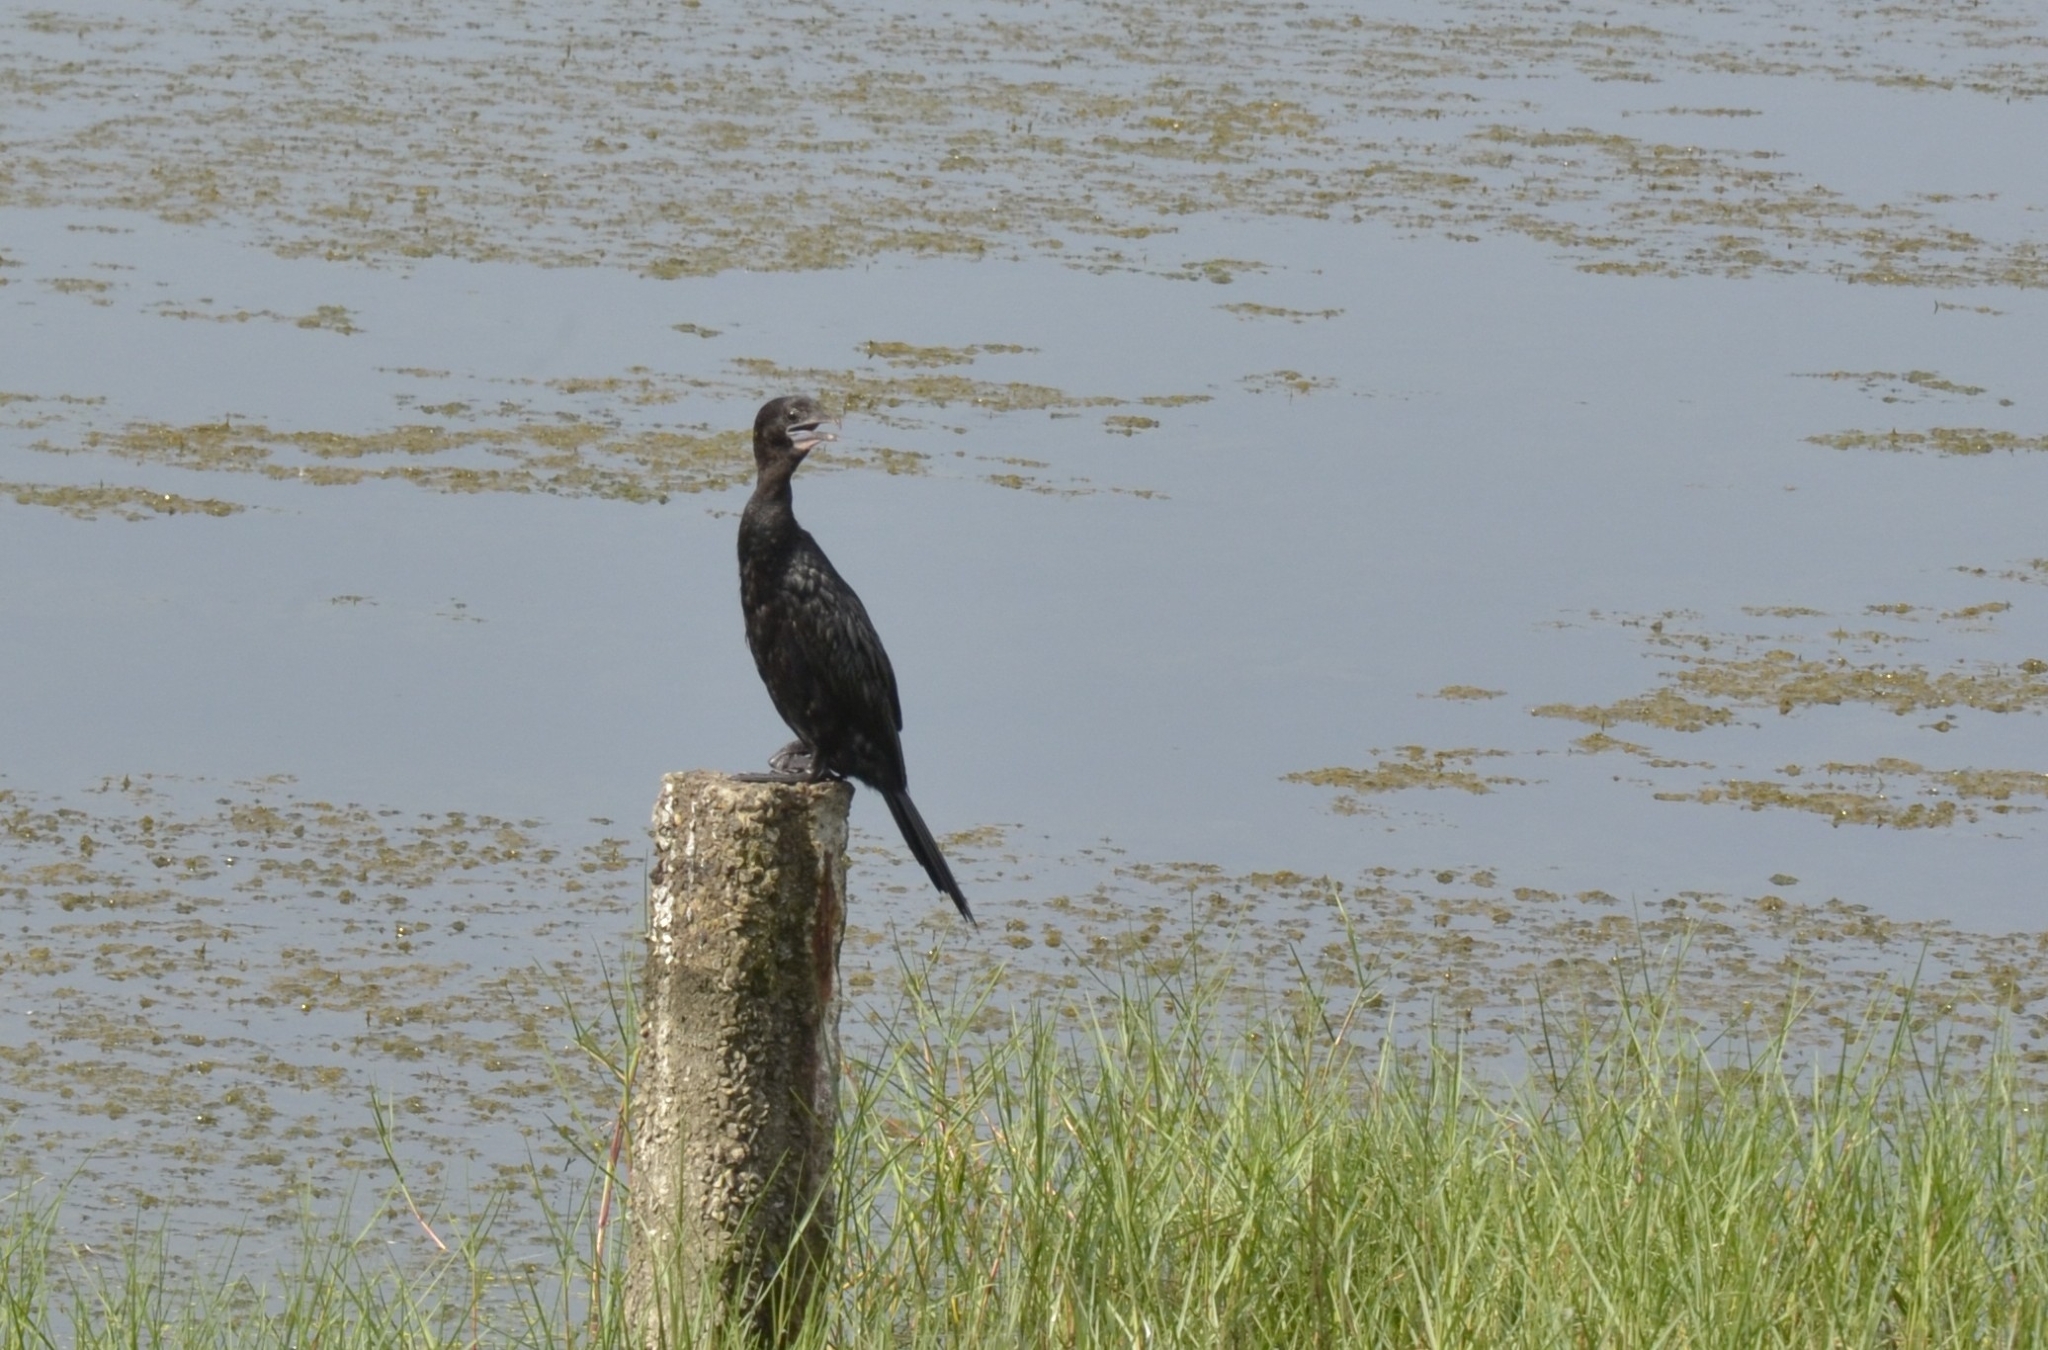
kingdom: Animalia
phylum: Chordata
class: Aves
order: Suliformes
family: Phalacrocoracidae
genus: Microcarbo
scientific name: Microcarbo niger
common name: Little cormorant
